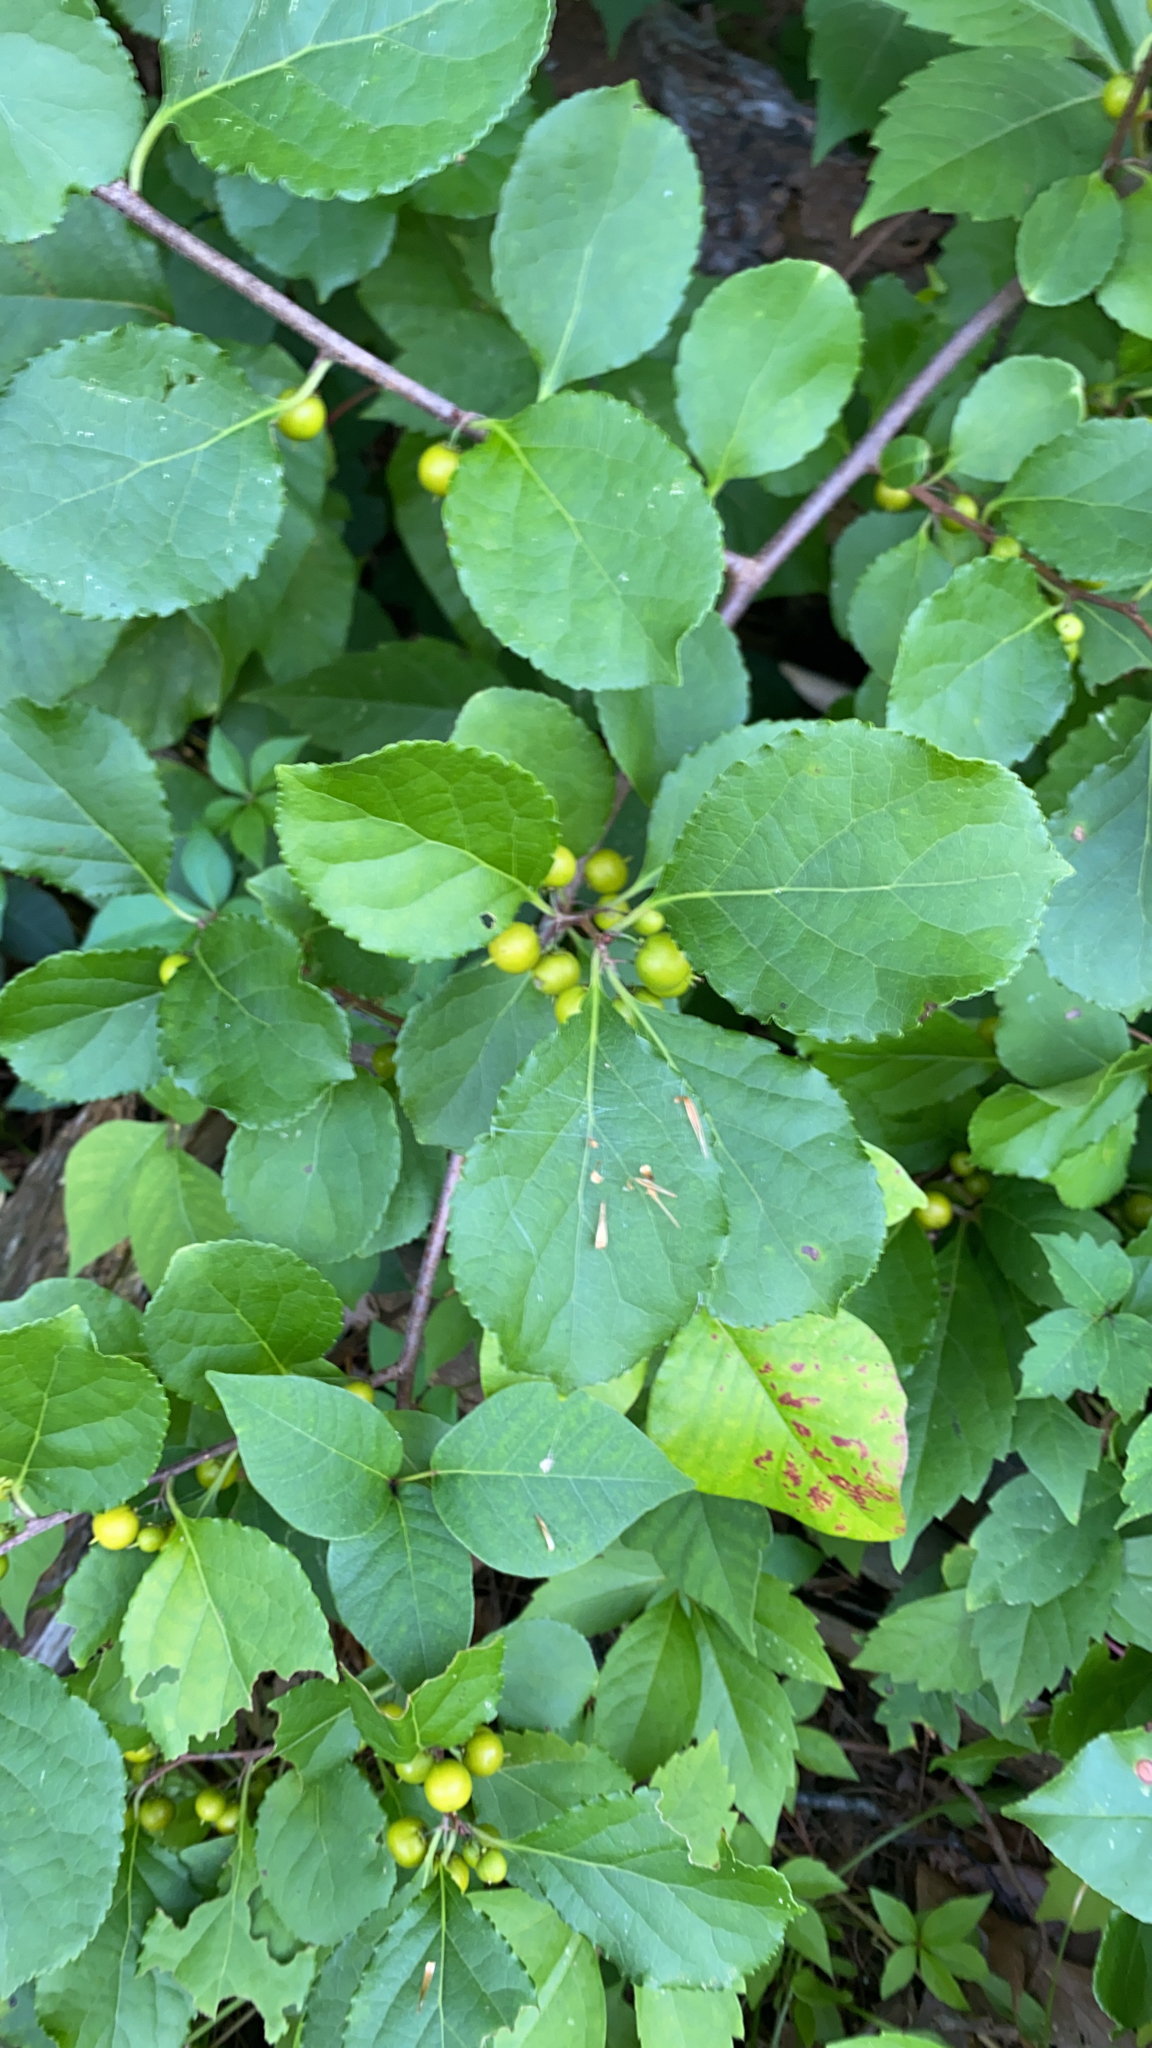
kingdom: Plantae
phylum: Tracheophyta
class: Magnoliopsida
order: Celastrales
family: Celastraceae
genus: Celastrus
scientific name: Celastrus orbiculatus
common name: Oriental bittersweet
